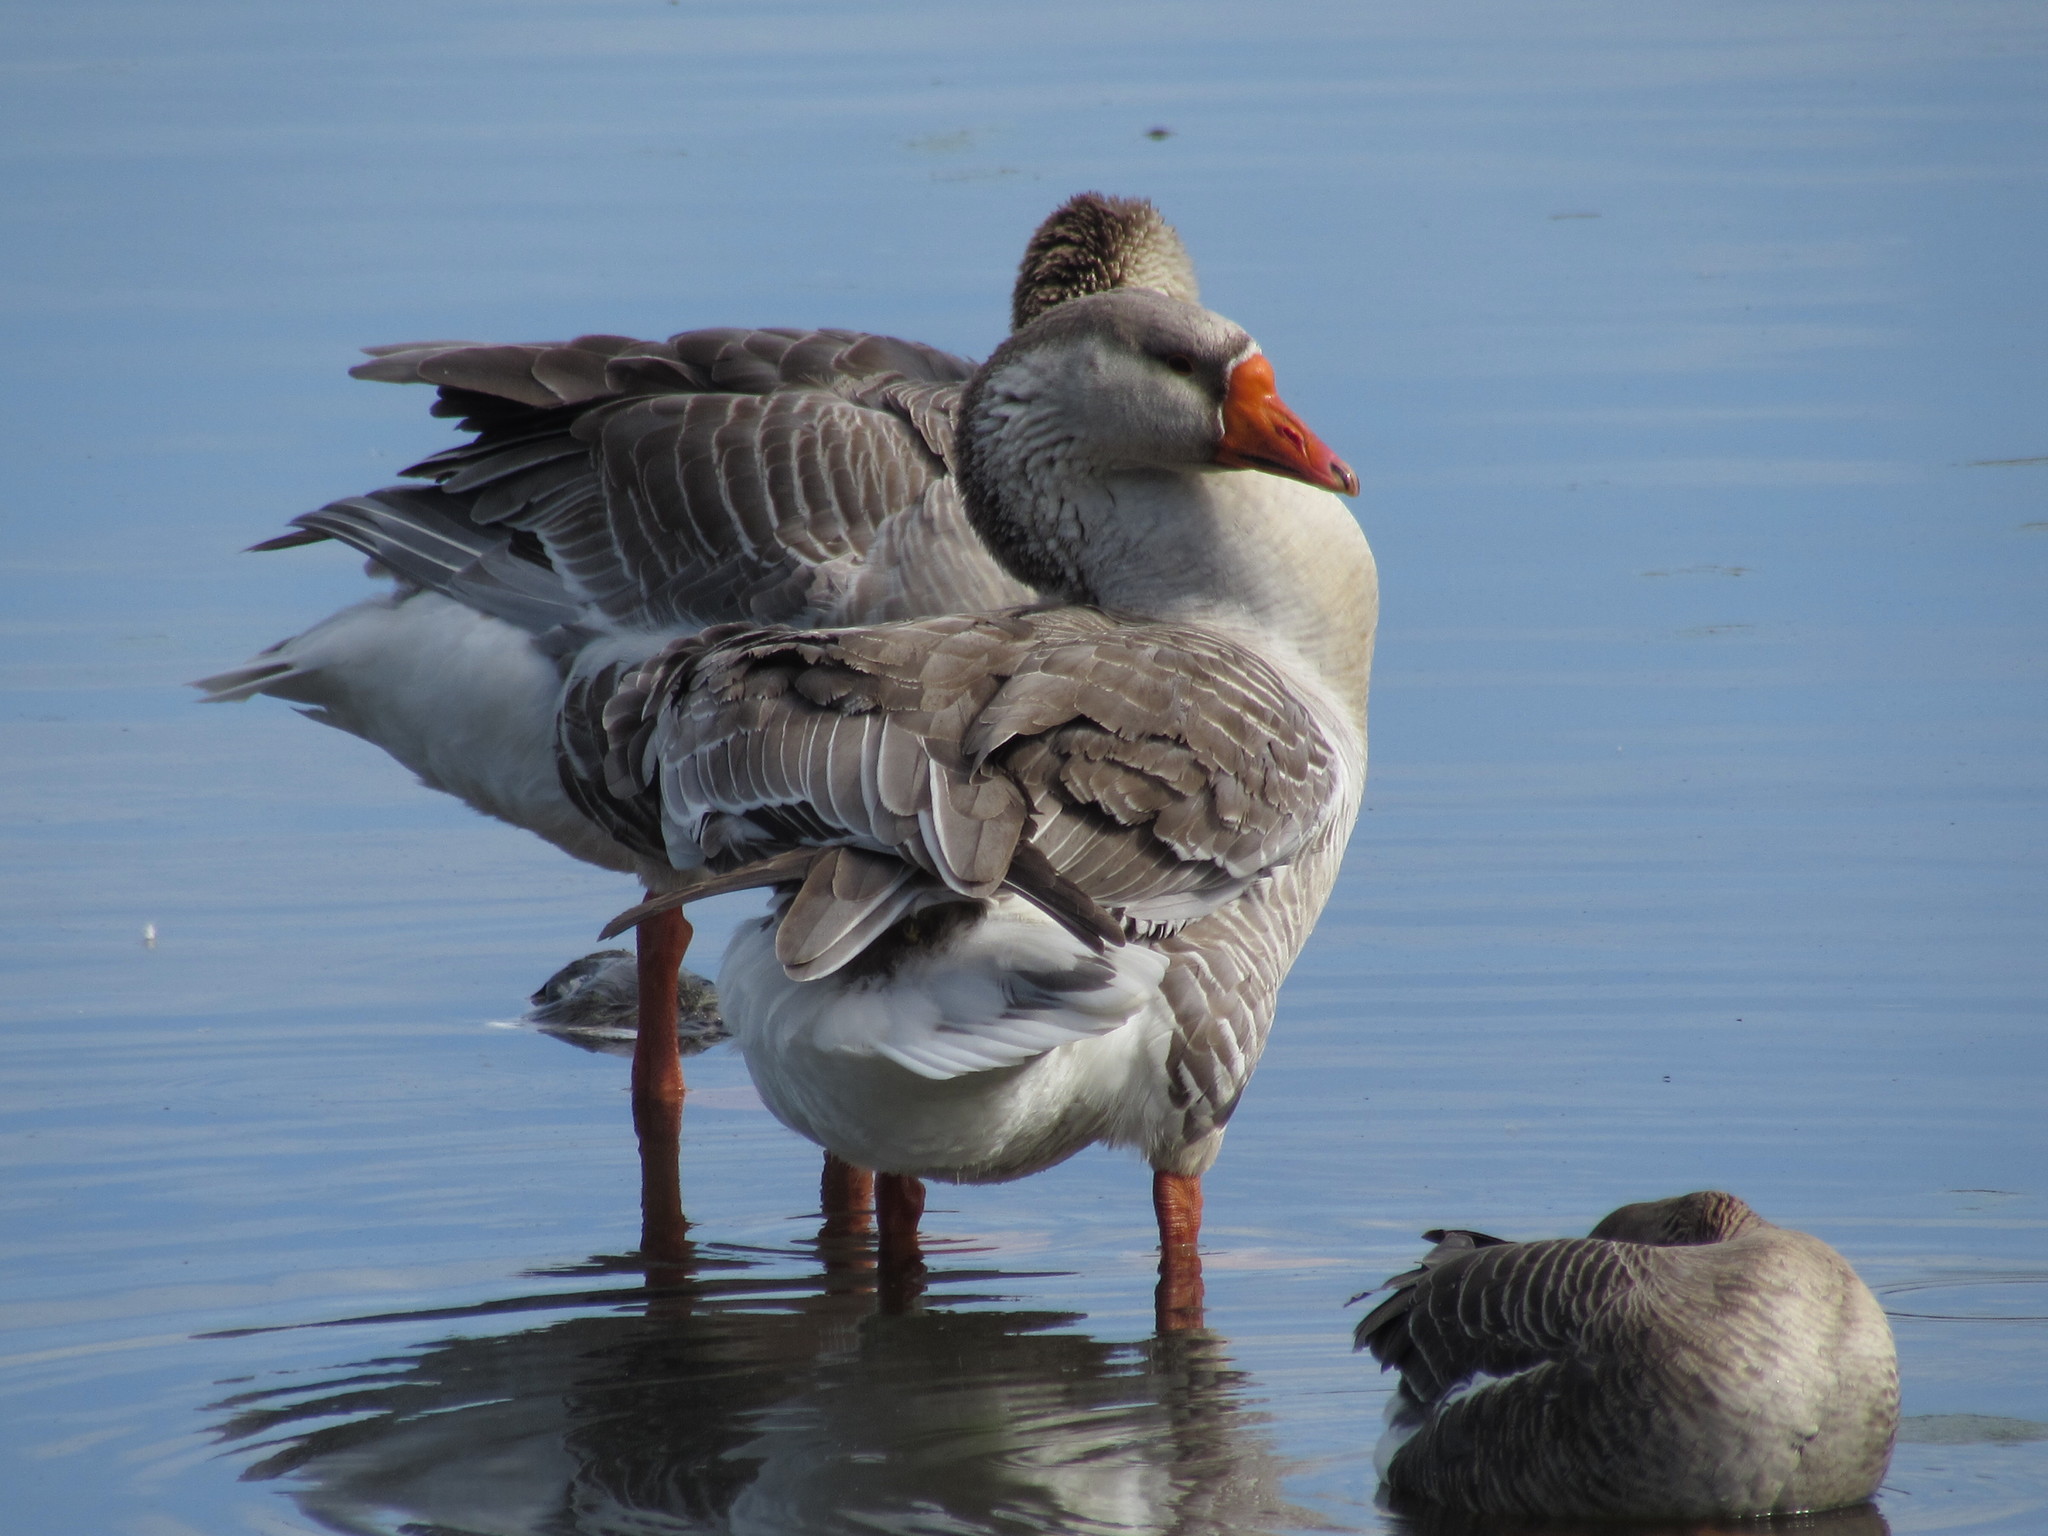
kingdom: Animalia
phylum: Chordata
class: Aves
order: Anseriformes
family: Anatidae
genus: Anser
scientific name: Anser
